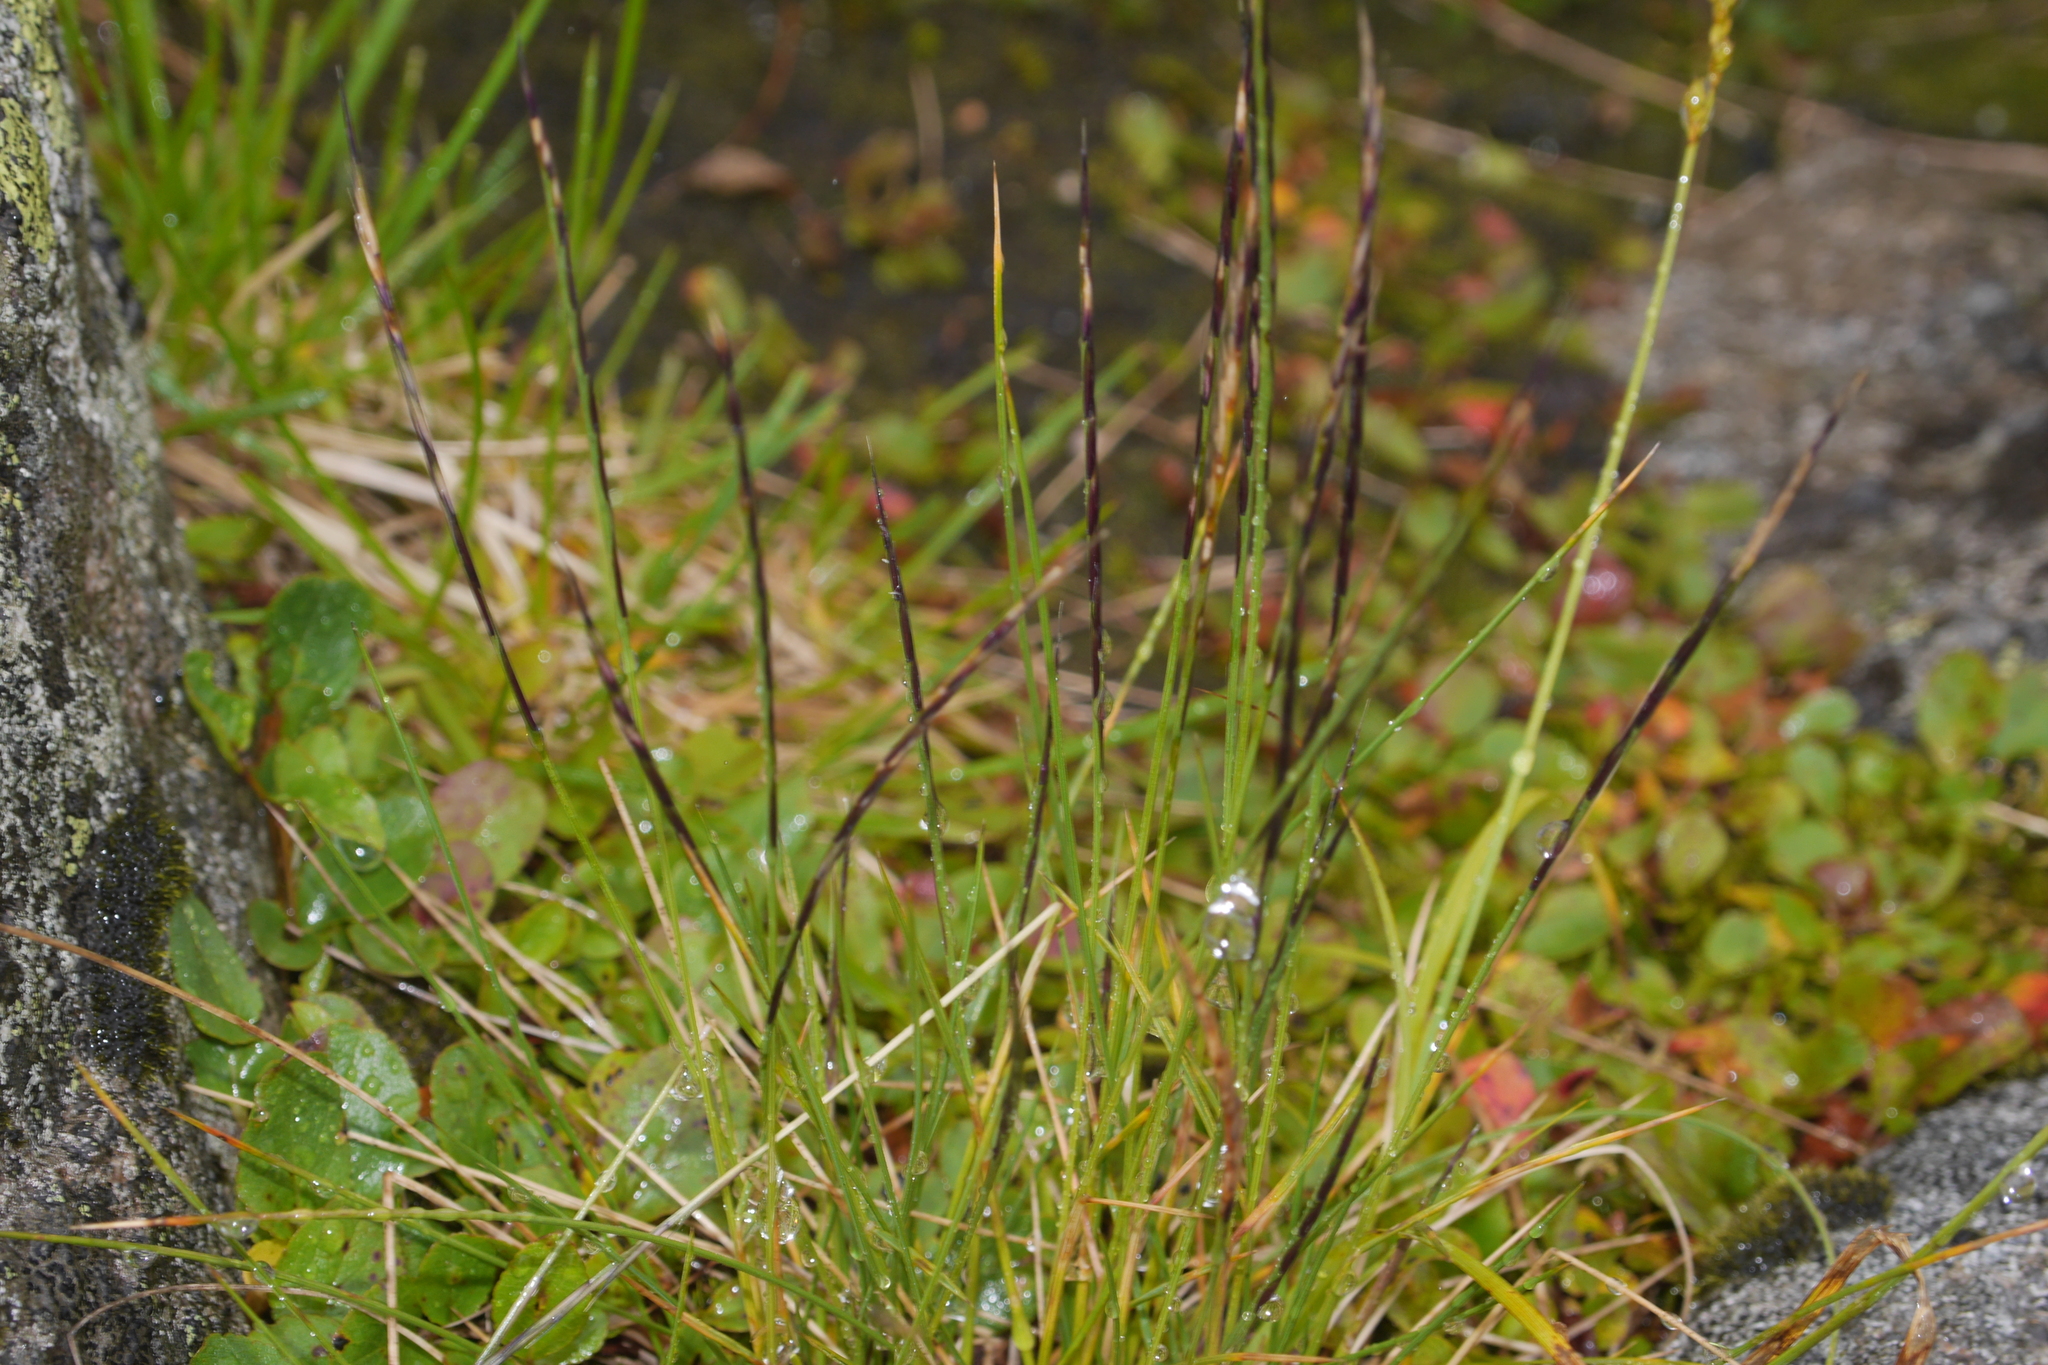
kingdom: Plantae
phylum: Tracheophyta
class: Liliopsida
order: Poales
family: Poaceae
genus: Nardus
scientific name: Nardus stricta
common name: Mat-grass
